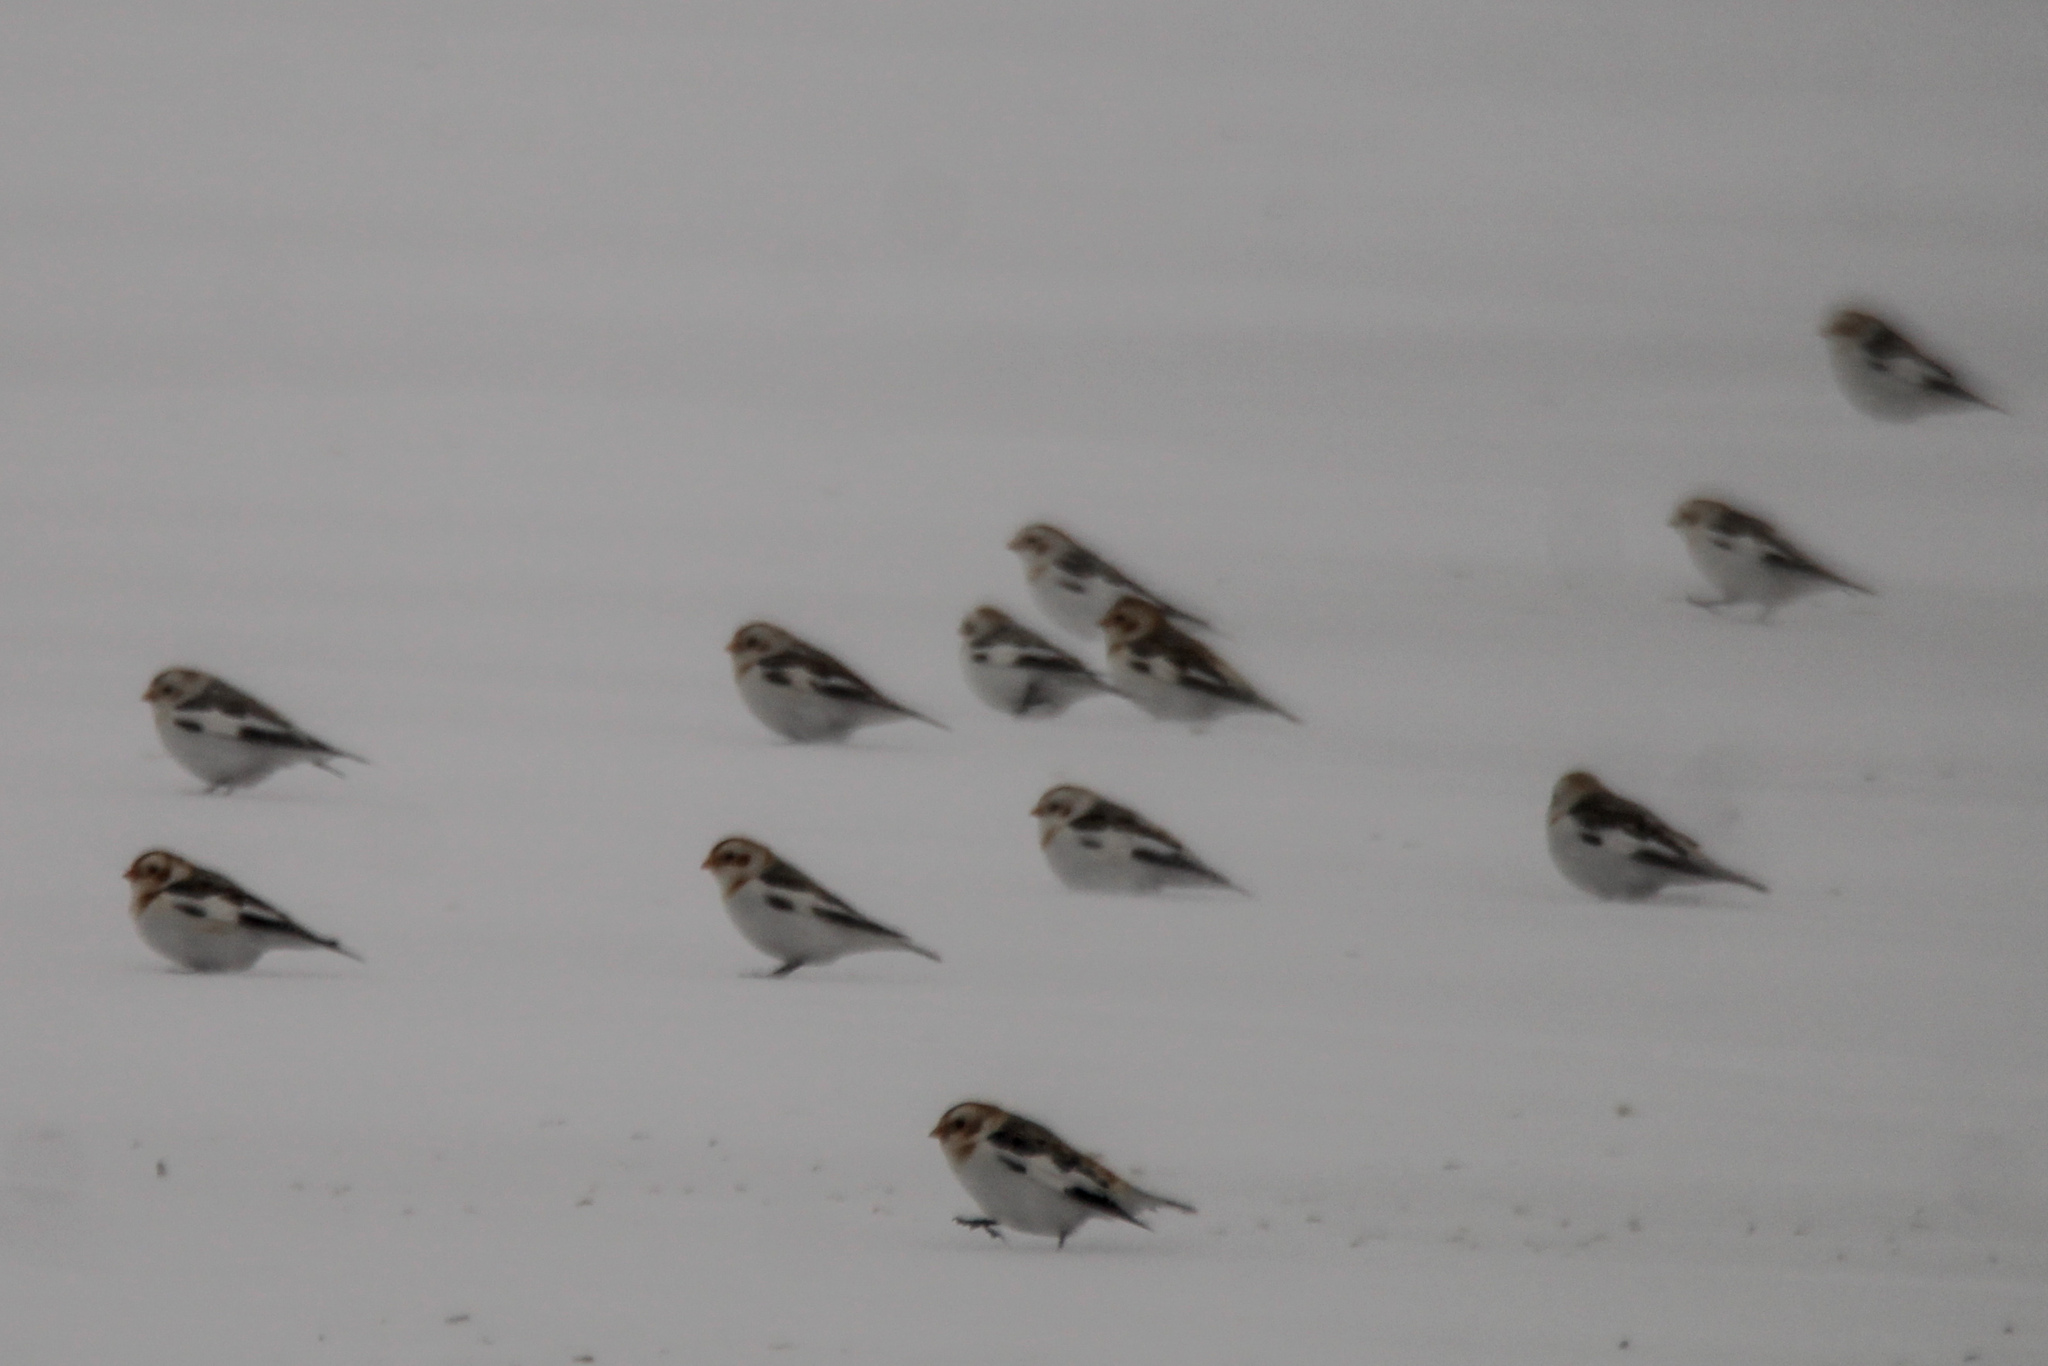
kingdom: Animalia
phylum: Chordata
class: Aves
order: Passeriformes
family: Calcariidae
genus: Plectrophenax
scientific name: Plectrophenax nivalis
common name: Snow bunting
